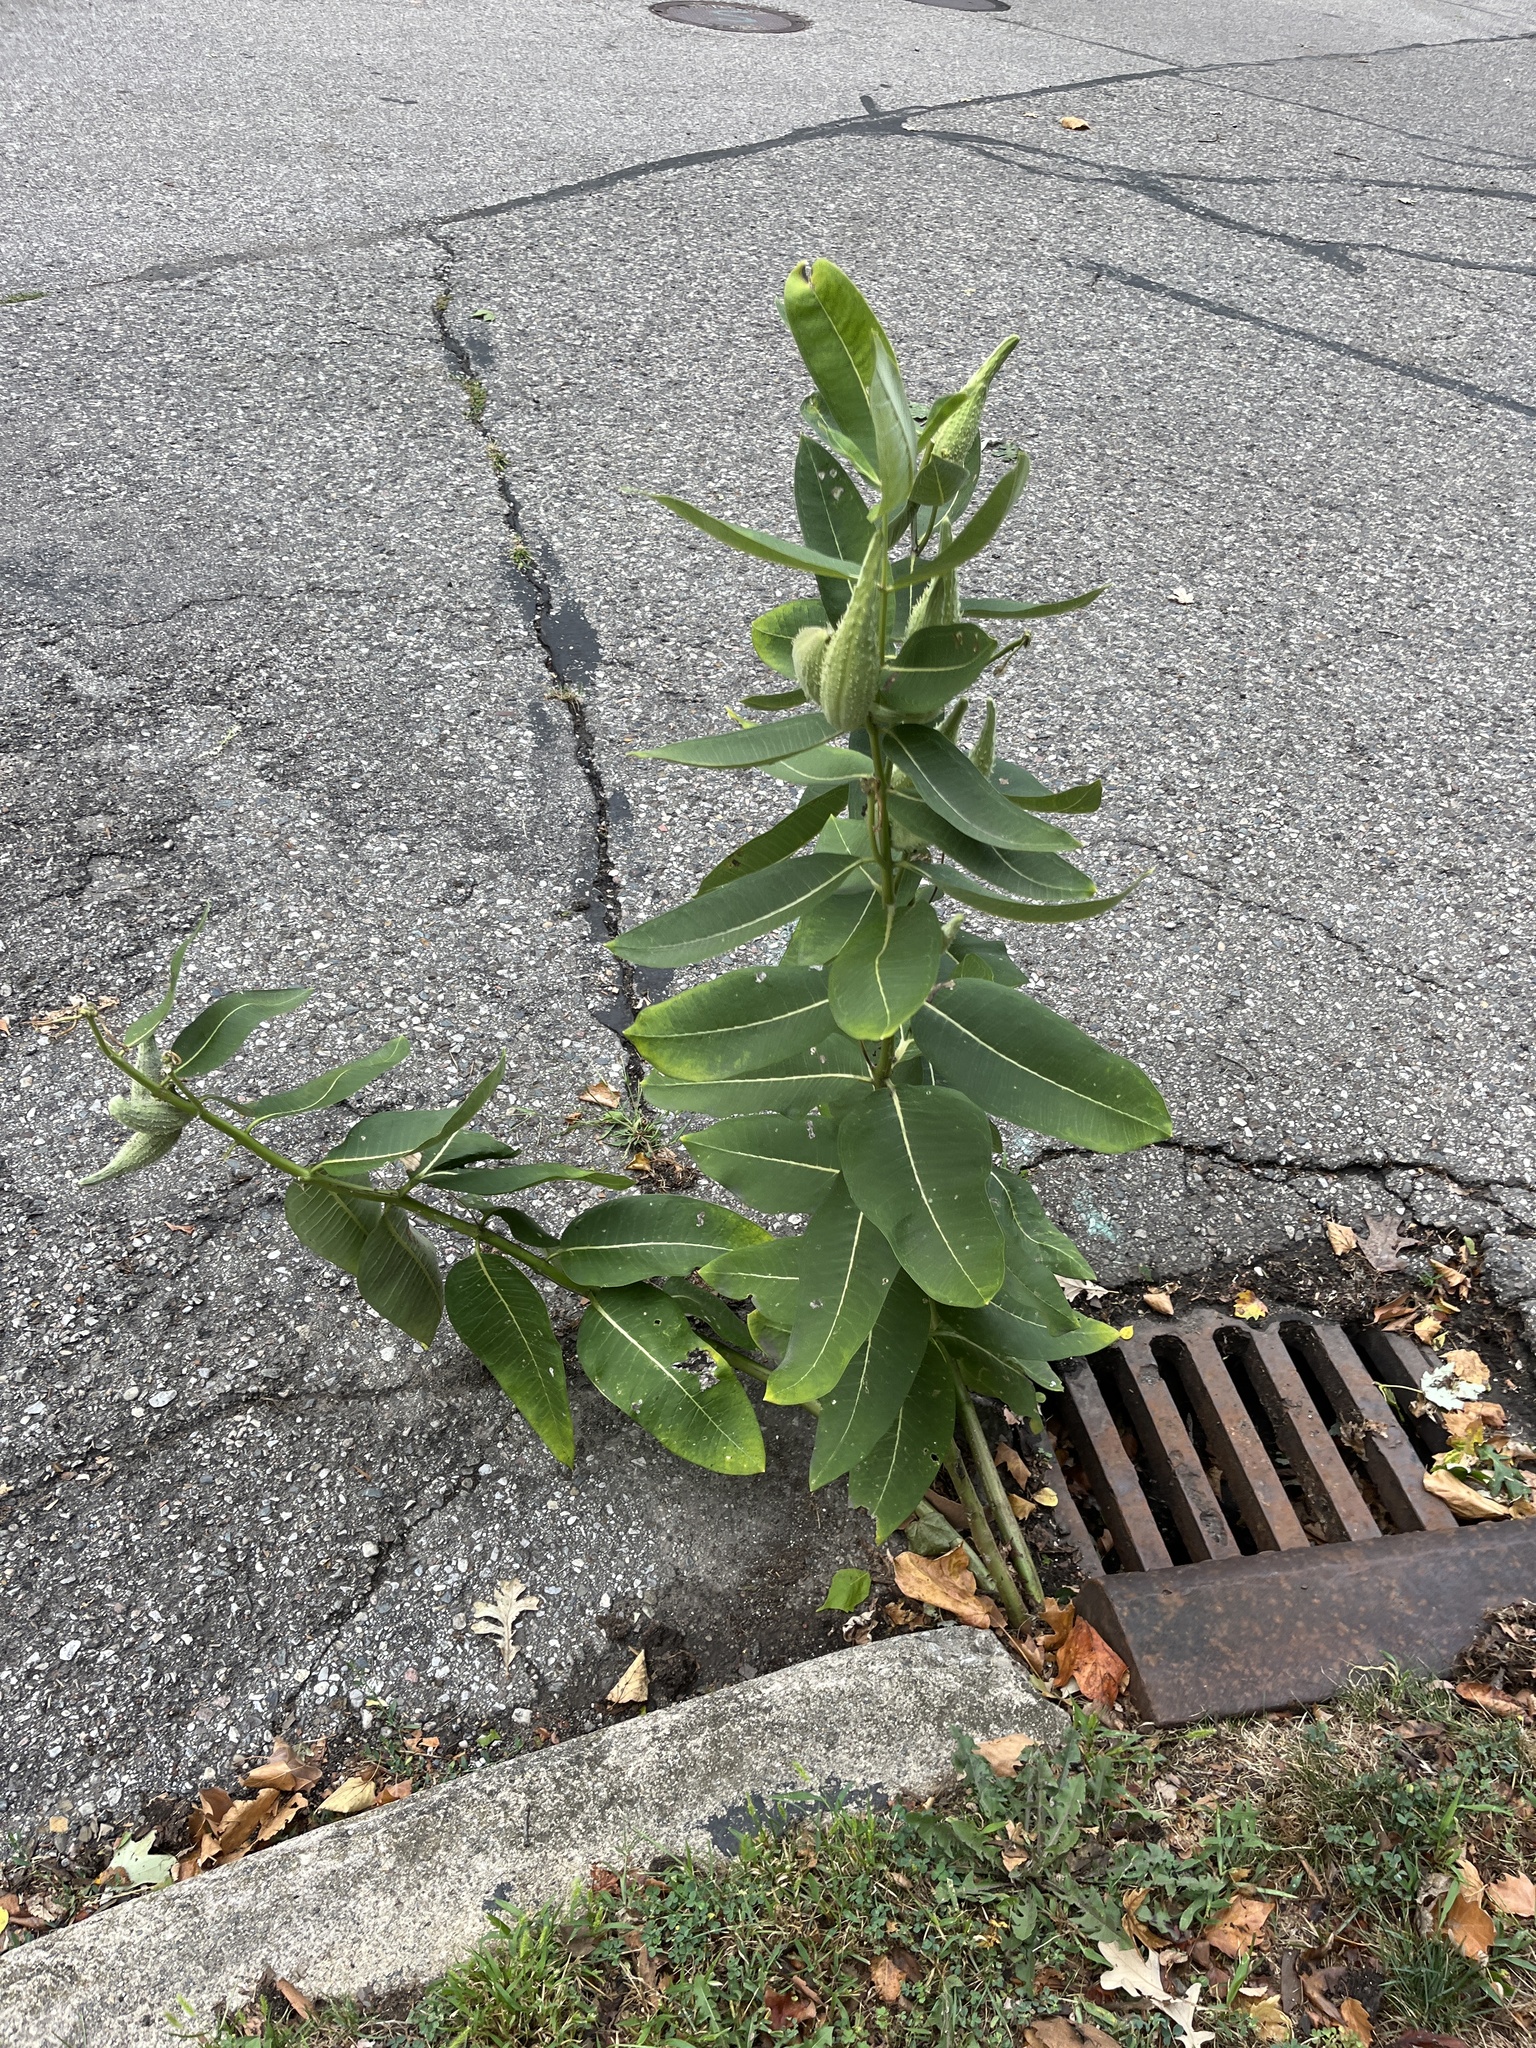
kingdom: Plantae
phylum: Tracheophyta
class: Magnoliopsida
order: Gentianales
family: Apocynaceae
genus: Asclepias
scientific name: Asclepias syriaca
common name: Common milkweed
